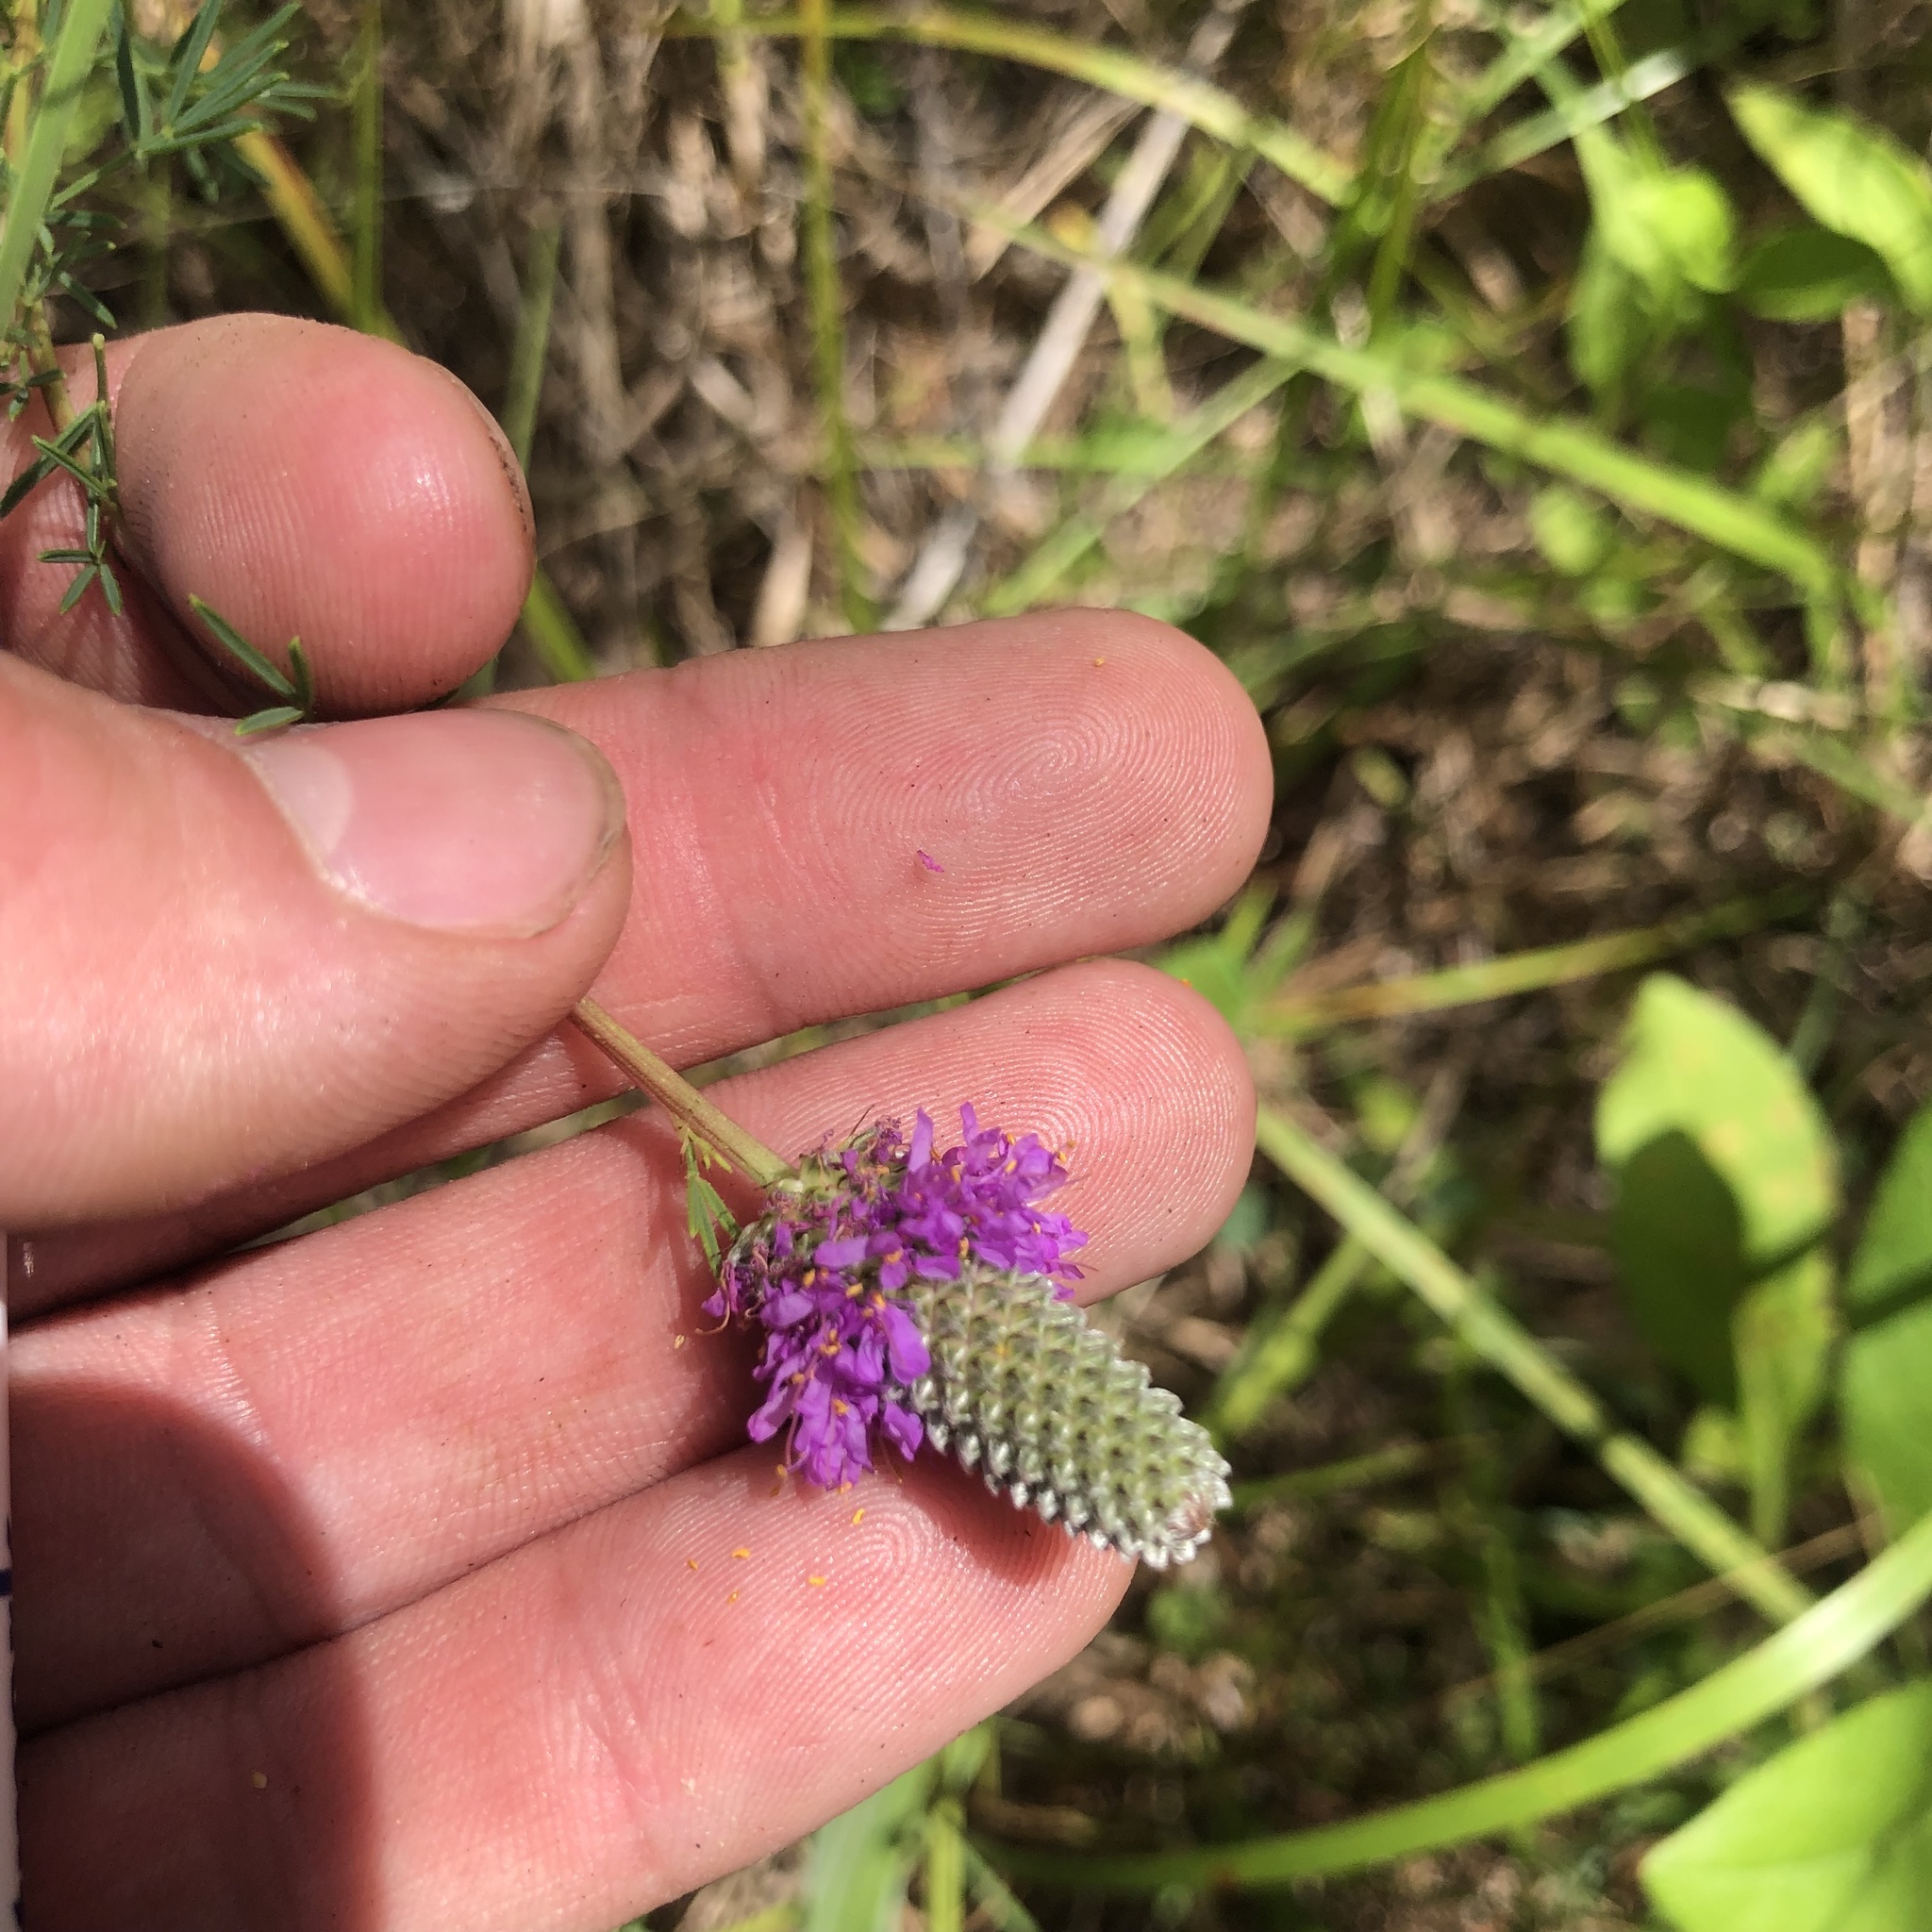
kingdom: Plantae
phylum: Tracheophyta
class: Magnoliopsida
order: Fabales
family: Fabaceae
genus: Dalea
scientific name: Dalea purpurea
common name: Purple prairie-clover
